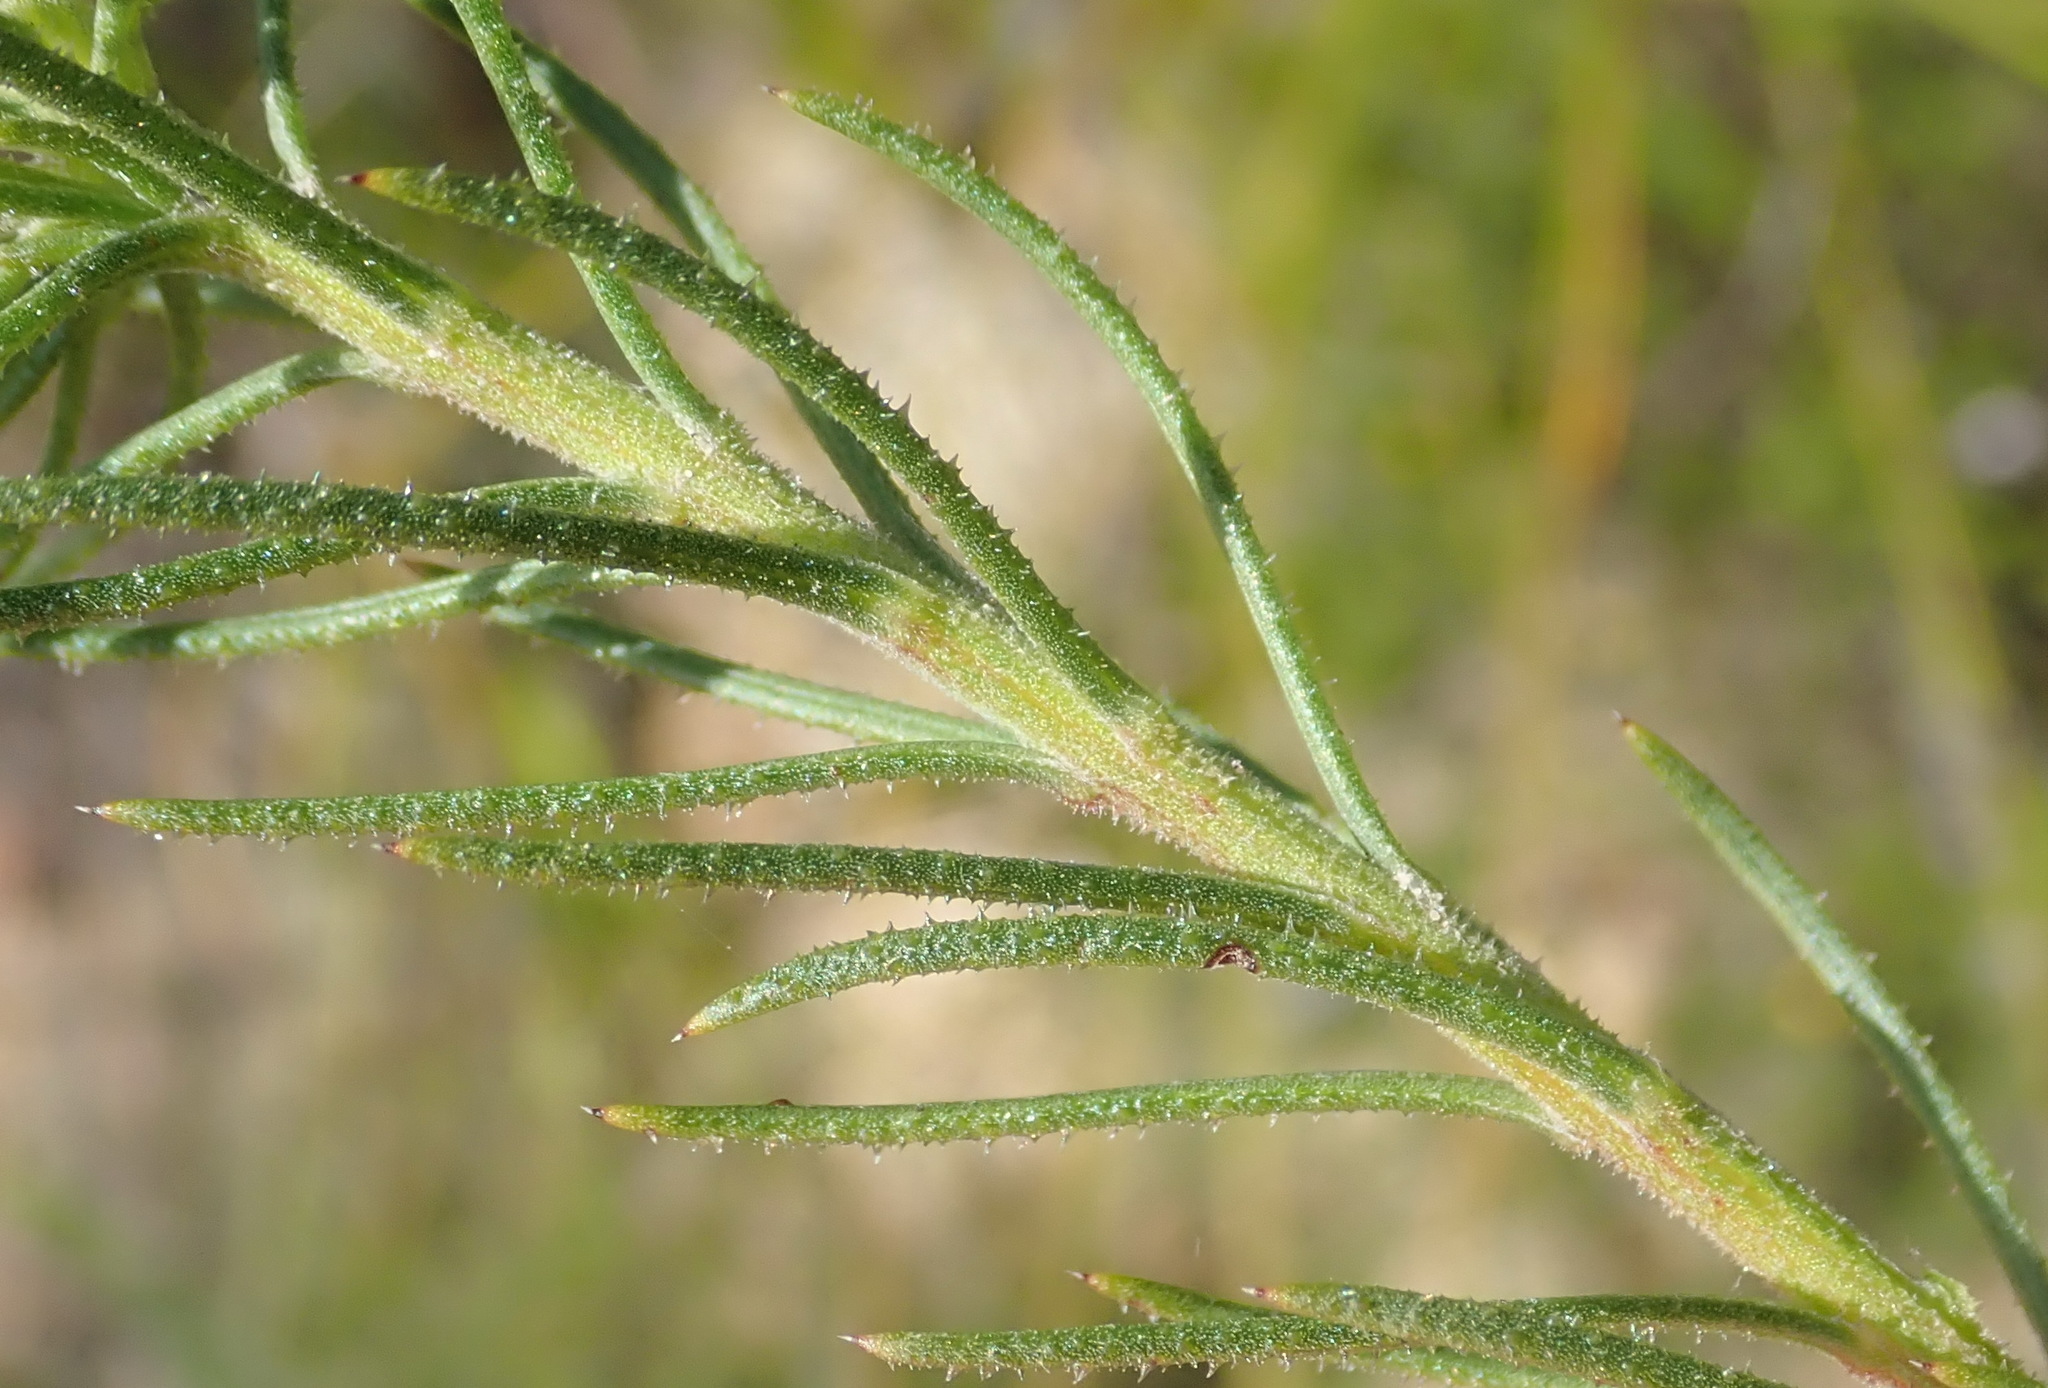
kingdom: Plantae
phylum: Tracheophyta
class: Magnoliopsida
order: Asterales
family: Asteraceae
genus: Gibbaria
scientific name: Gibbaria scabra
